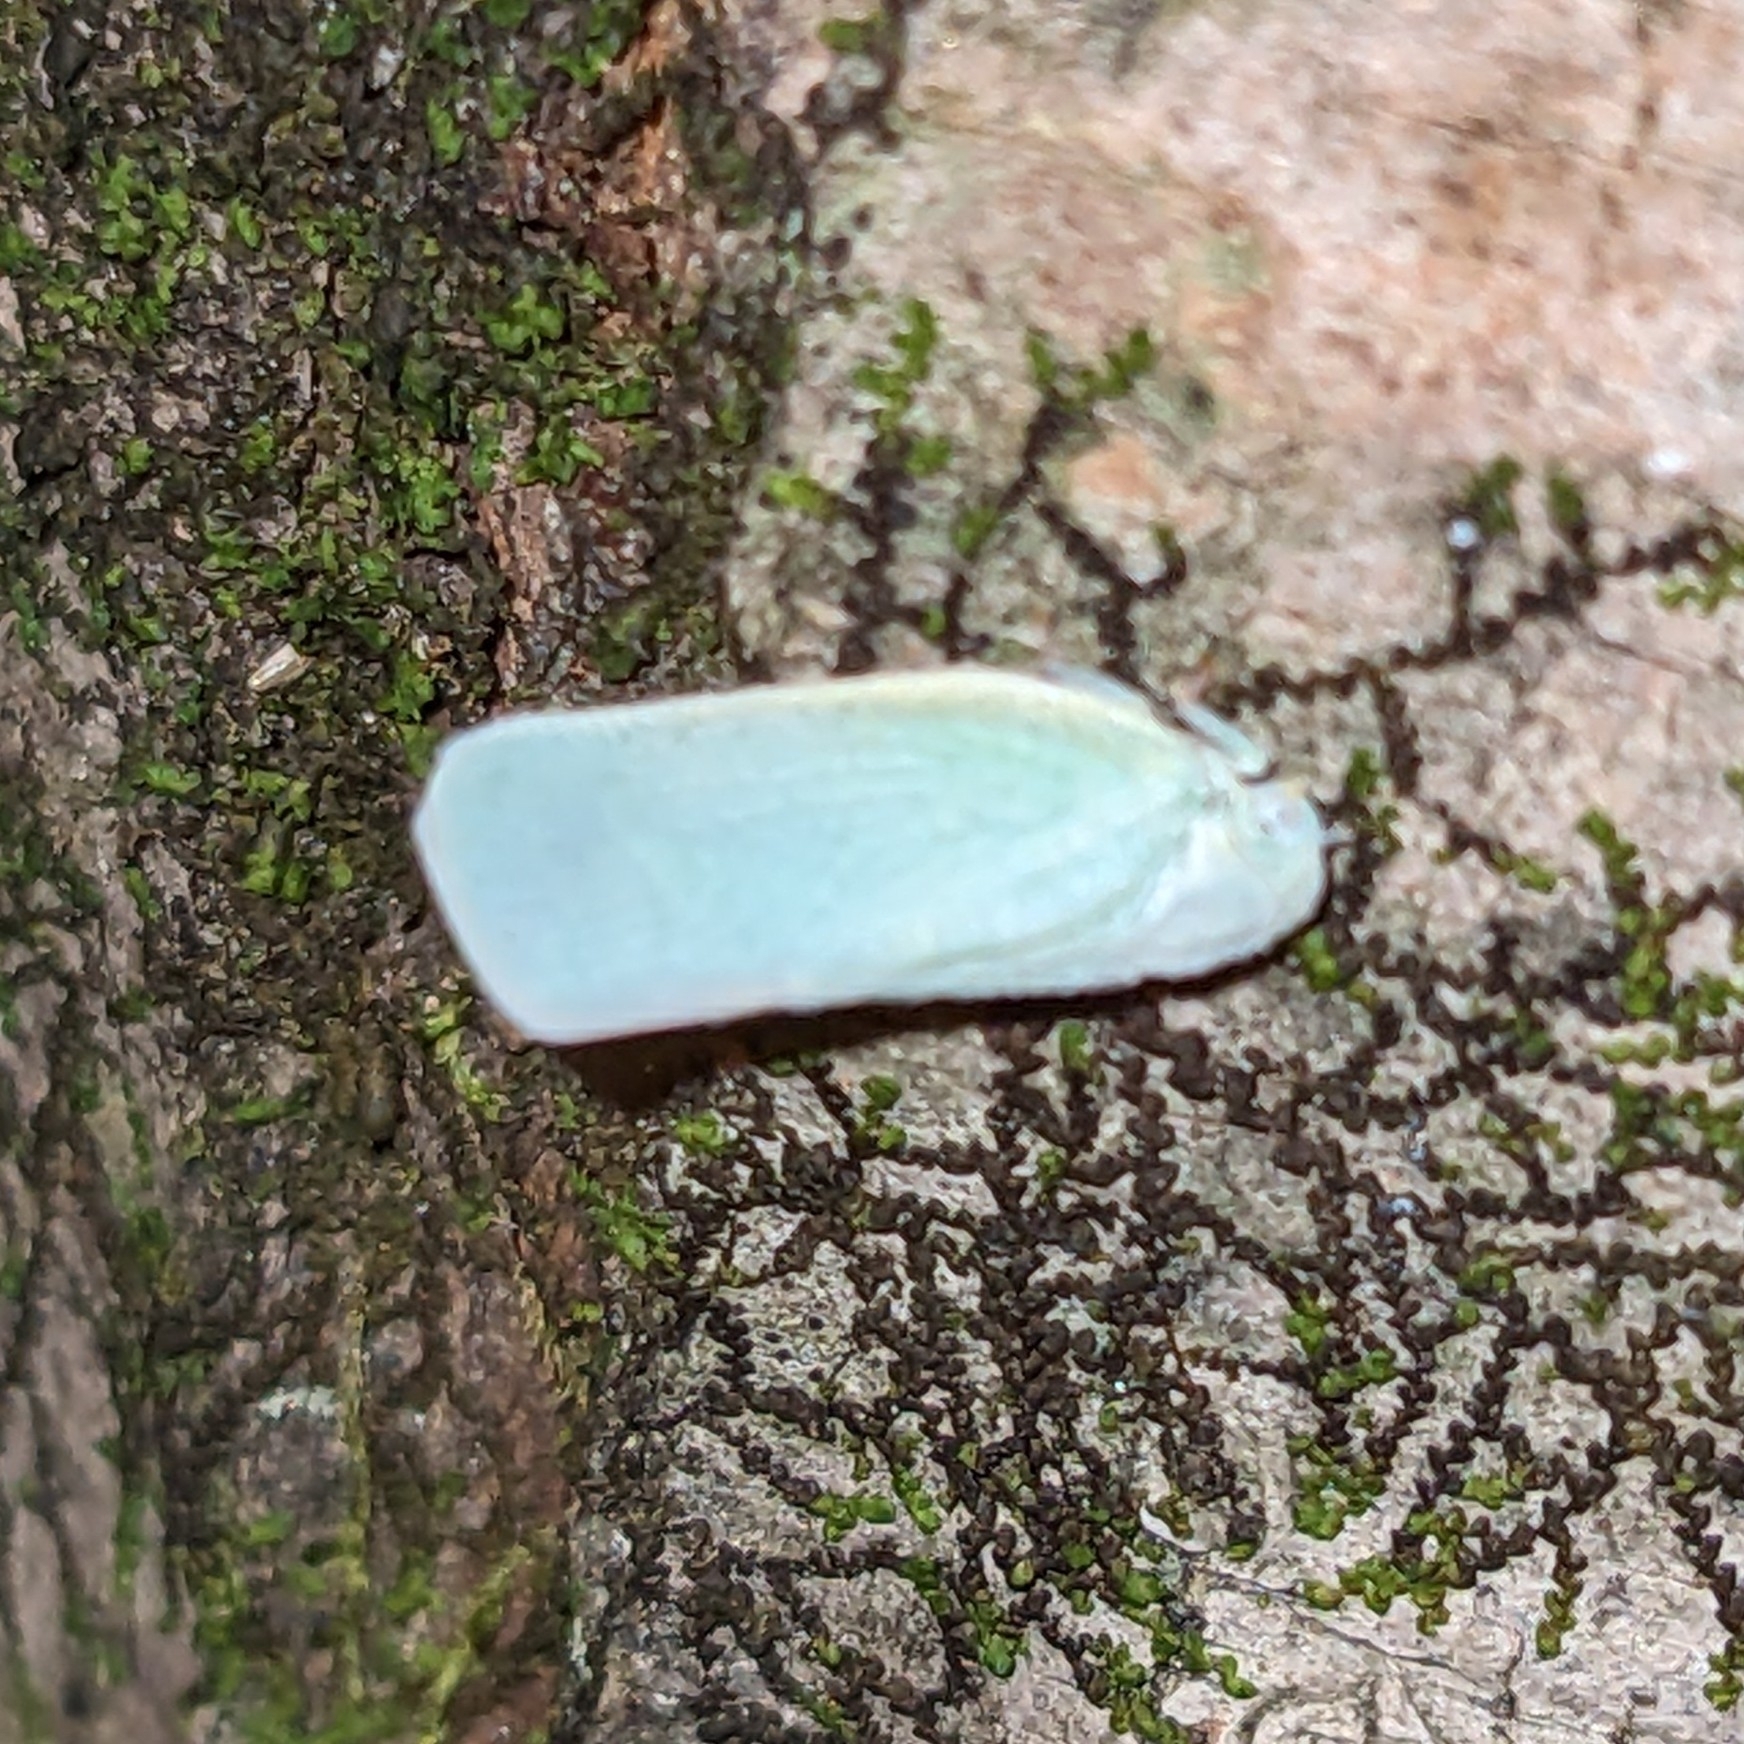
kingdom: Animalia
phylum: Arthropoda
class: Insecta
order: Hemiptera
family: Flatidae
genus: Flatormenis
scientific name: Flatormenis proxima
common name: Northern flatid planthopper
